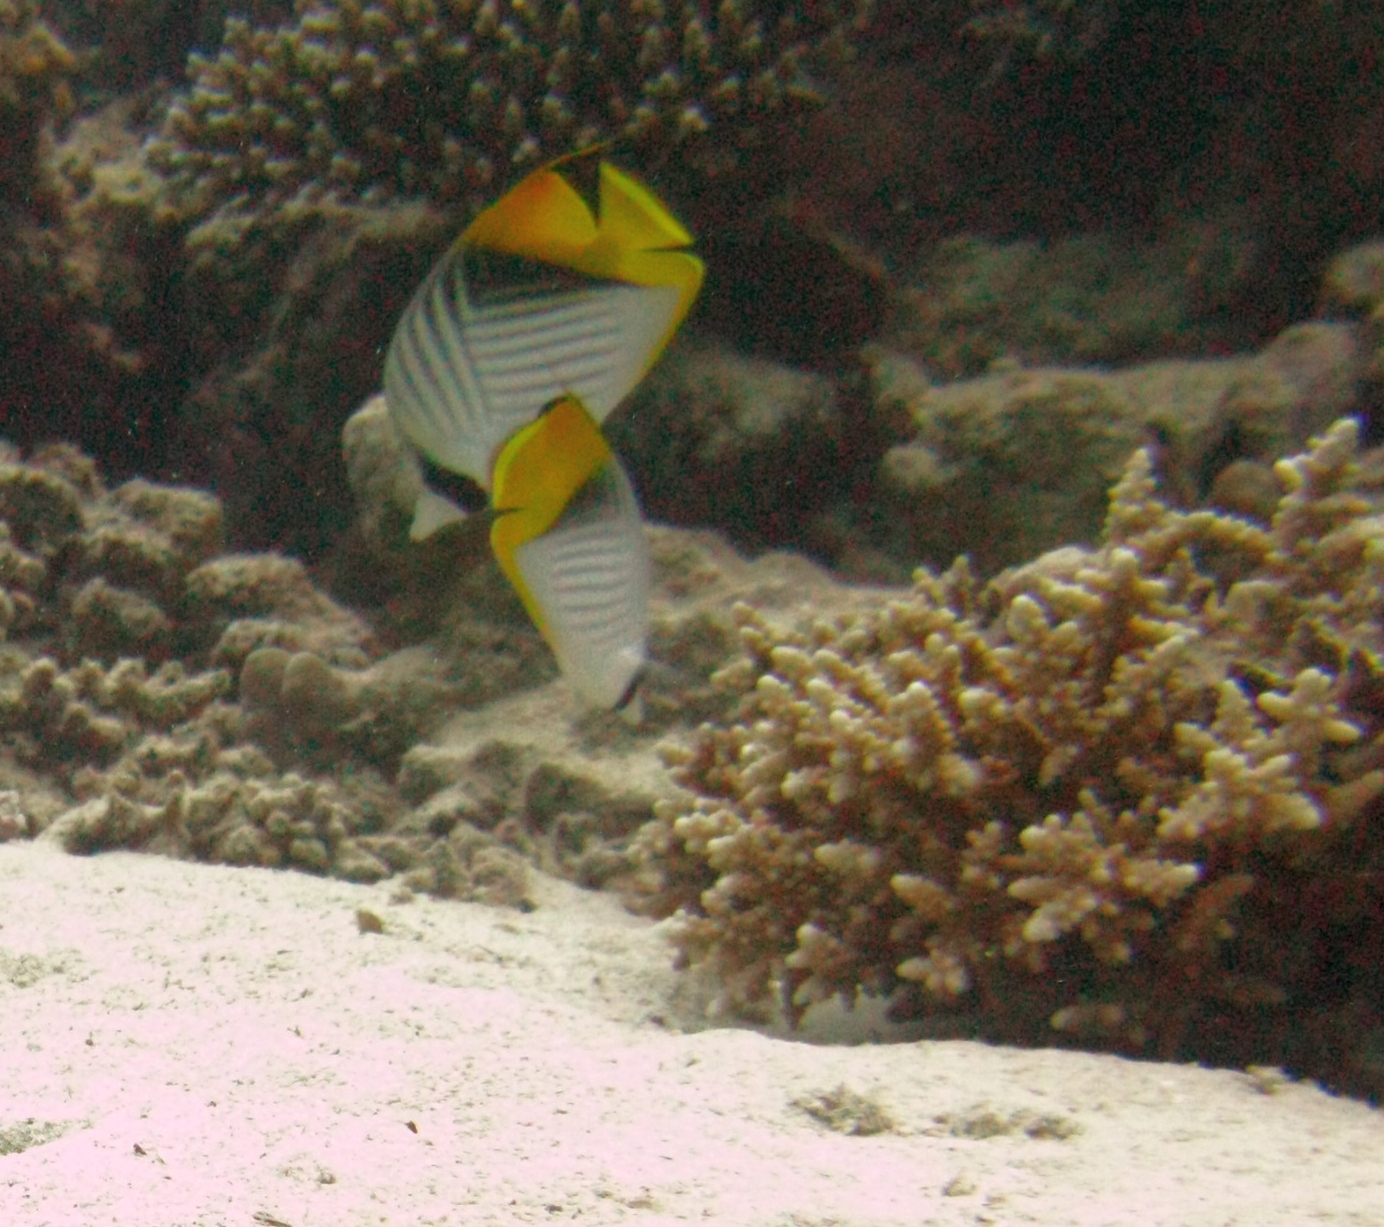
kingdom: Animalia
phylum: Chordata
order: Perciformes
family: Chaetodontidae
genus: Chaetodon
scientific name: Chaetodon auriga
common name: Threadfin butterflyfish
